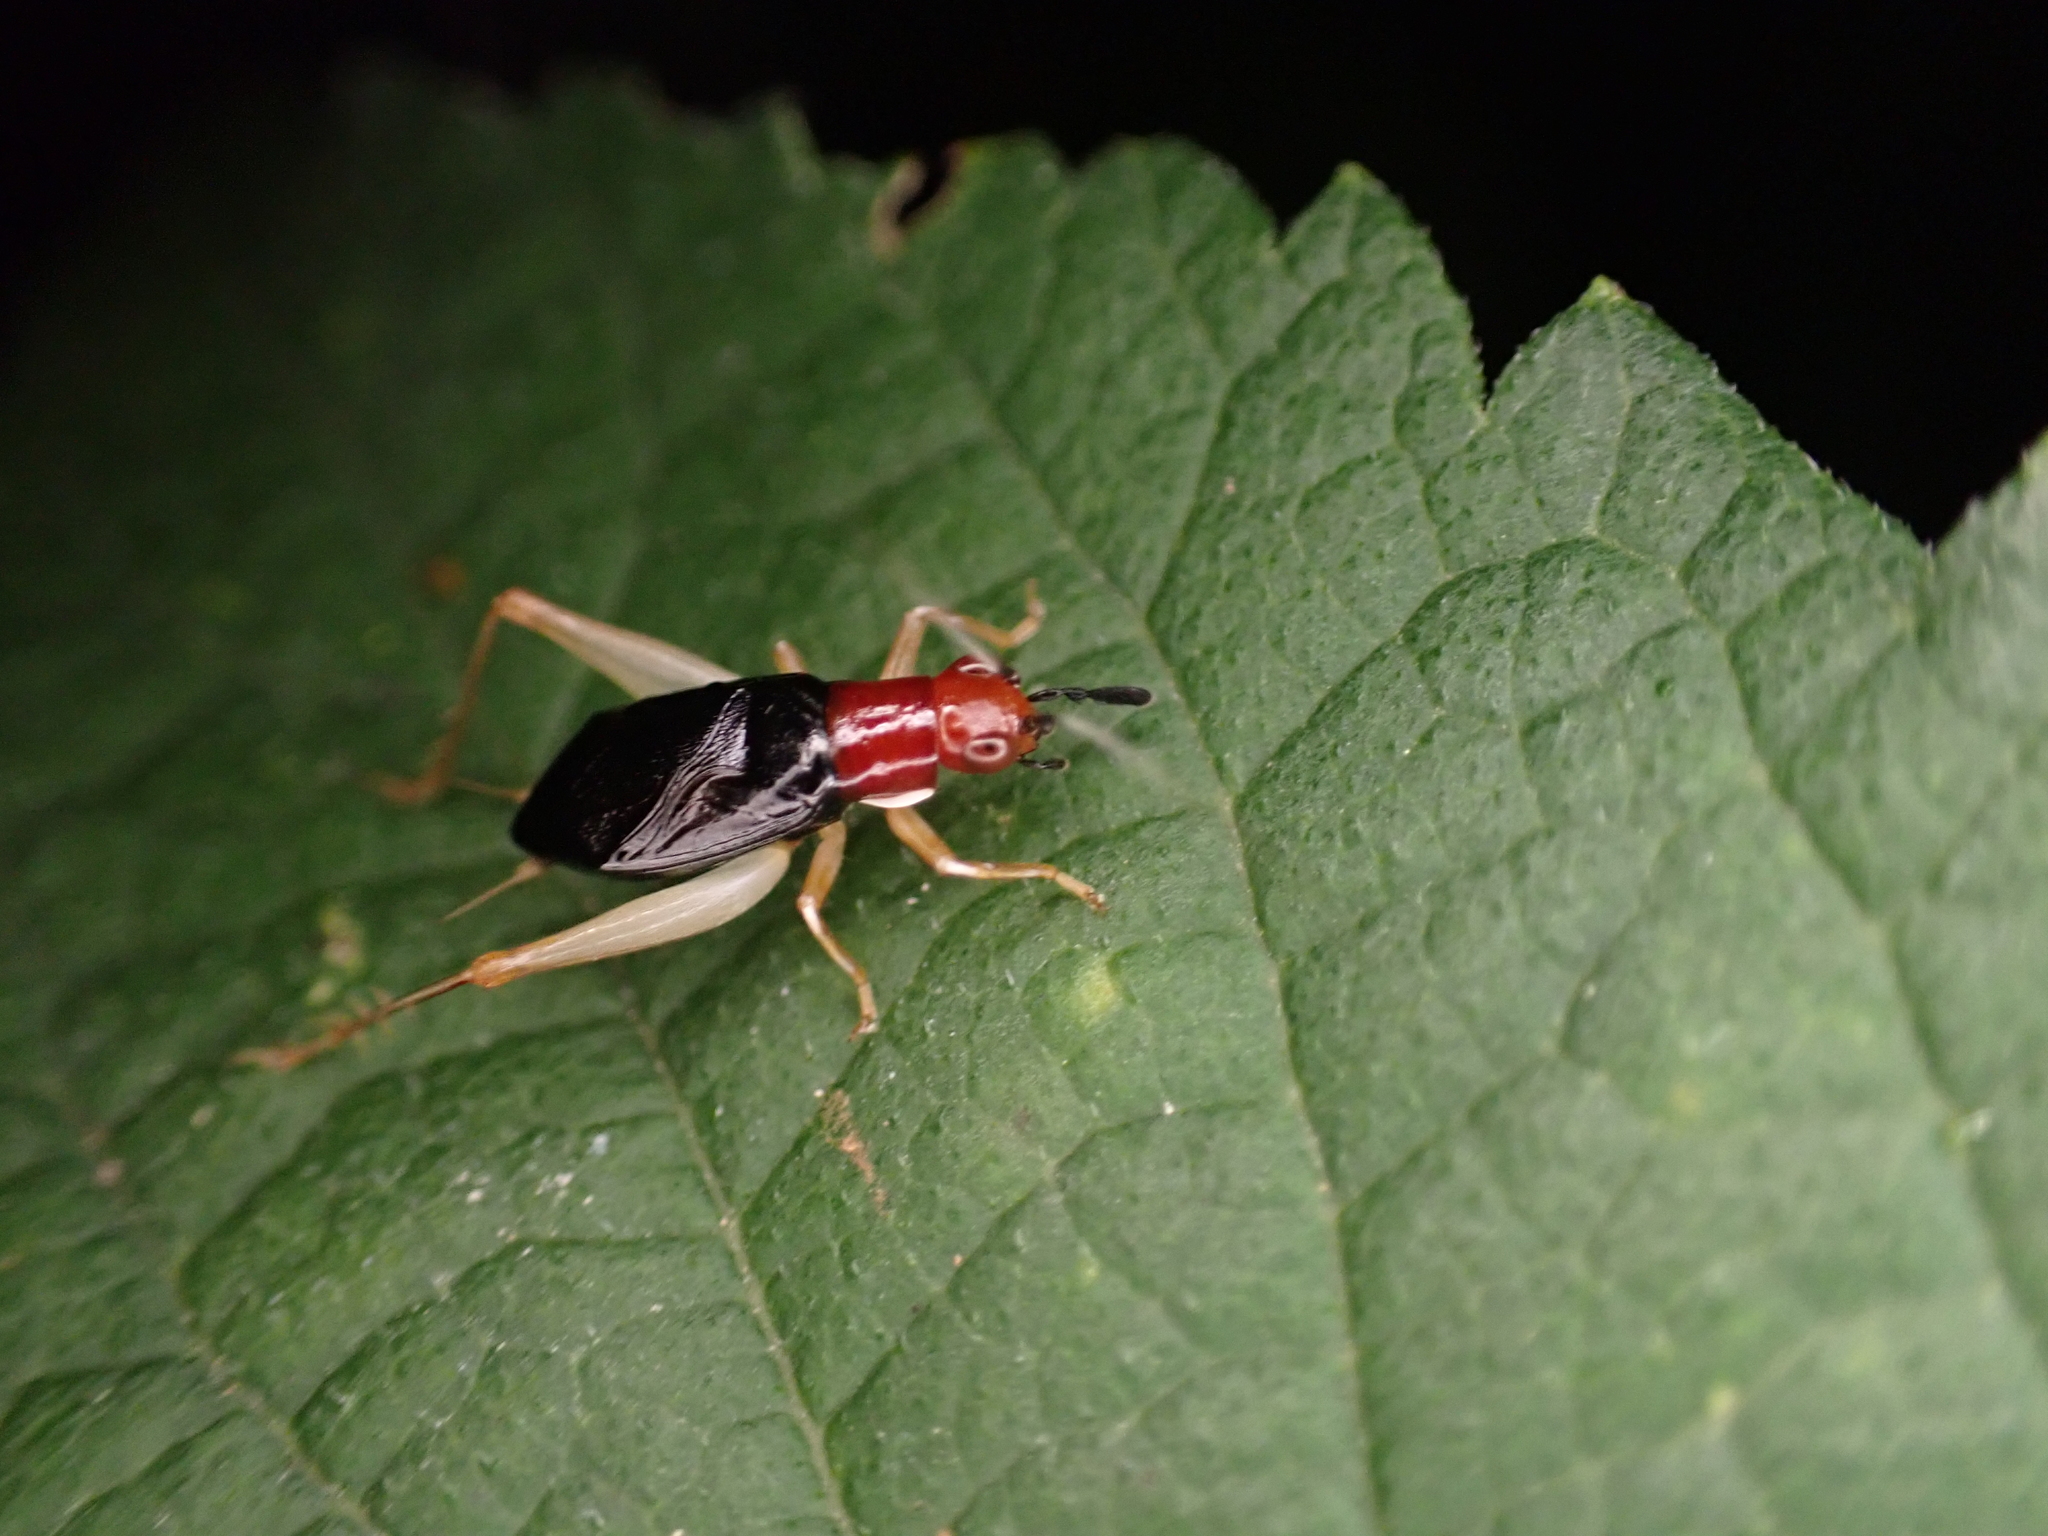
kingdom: Animalia
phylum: Arthropoda
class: Insecta
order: Orthoptera
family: Trigonidiidae
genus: Phyllopalpus
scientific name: Phyllopalpus pulchellus
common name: Handsome trig
